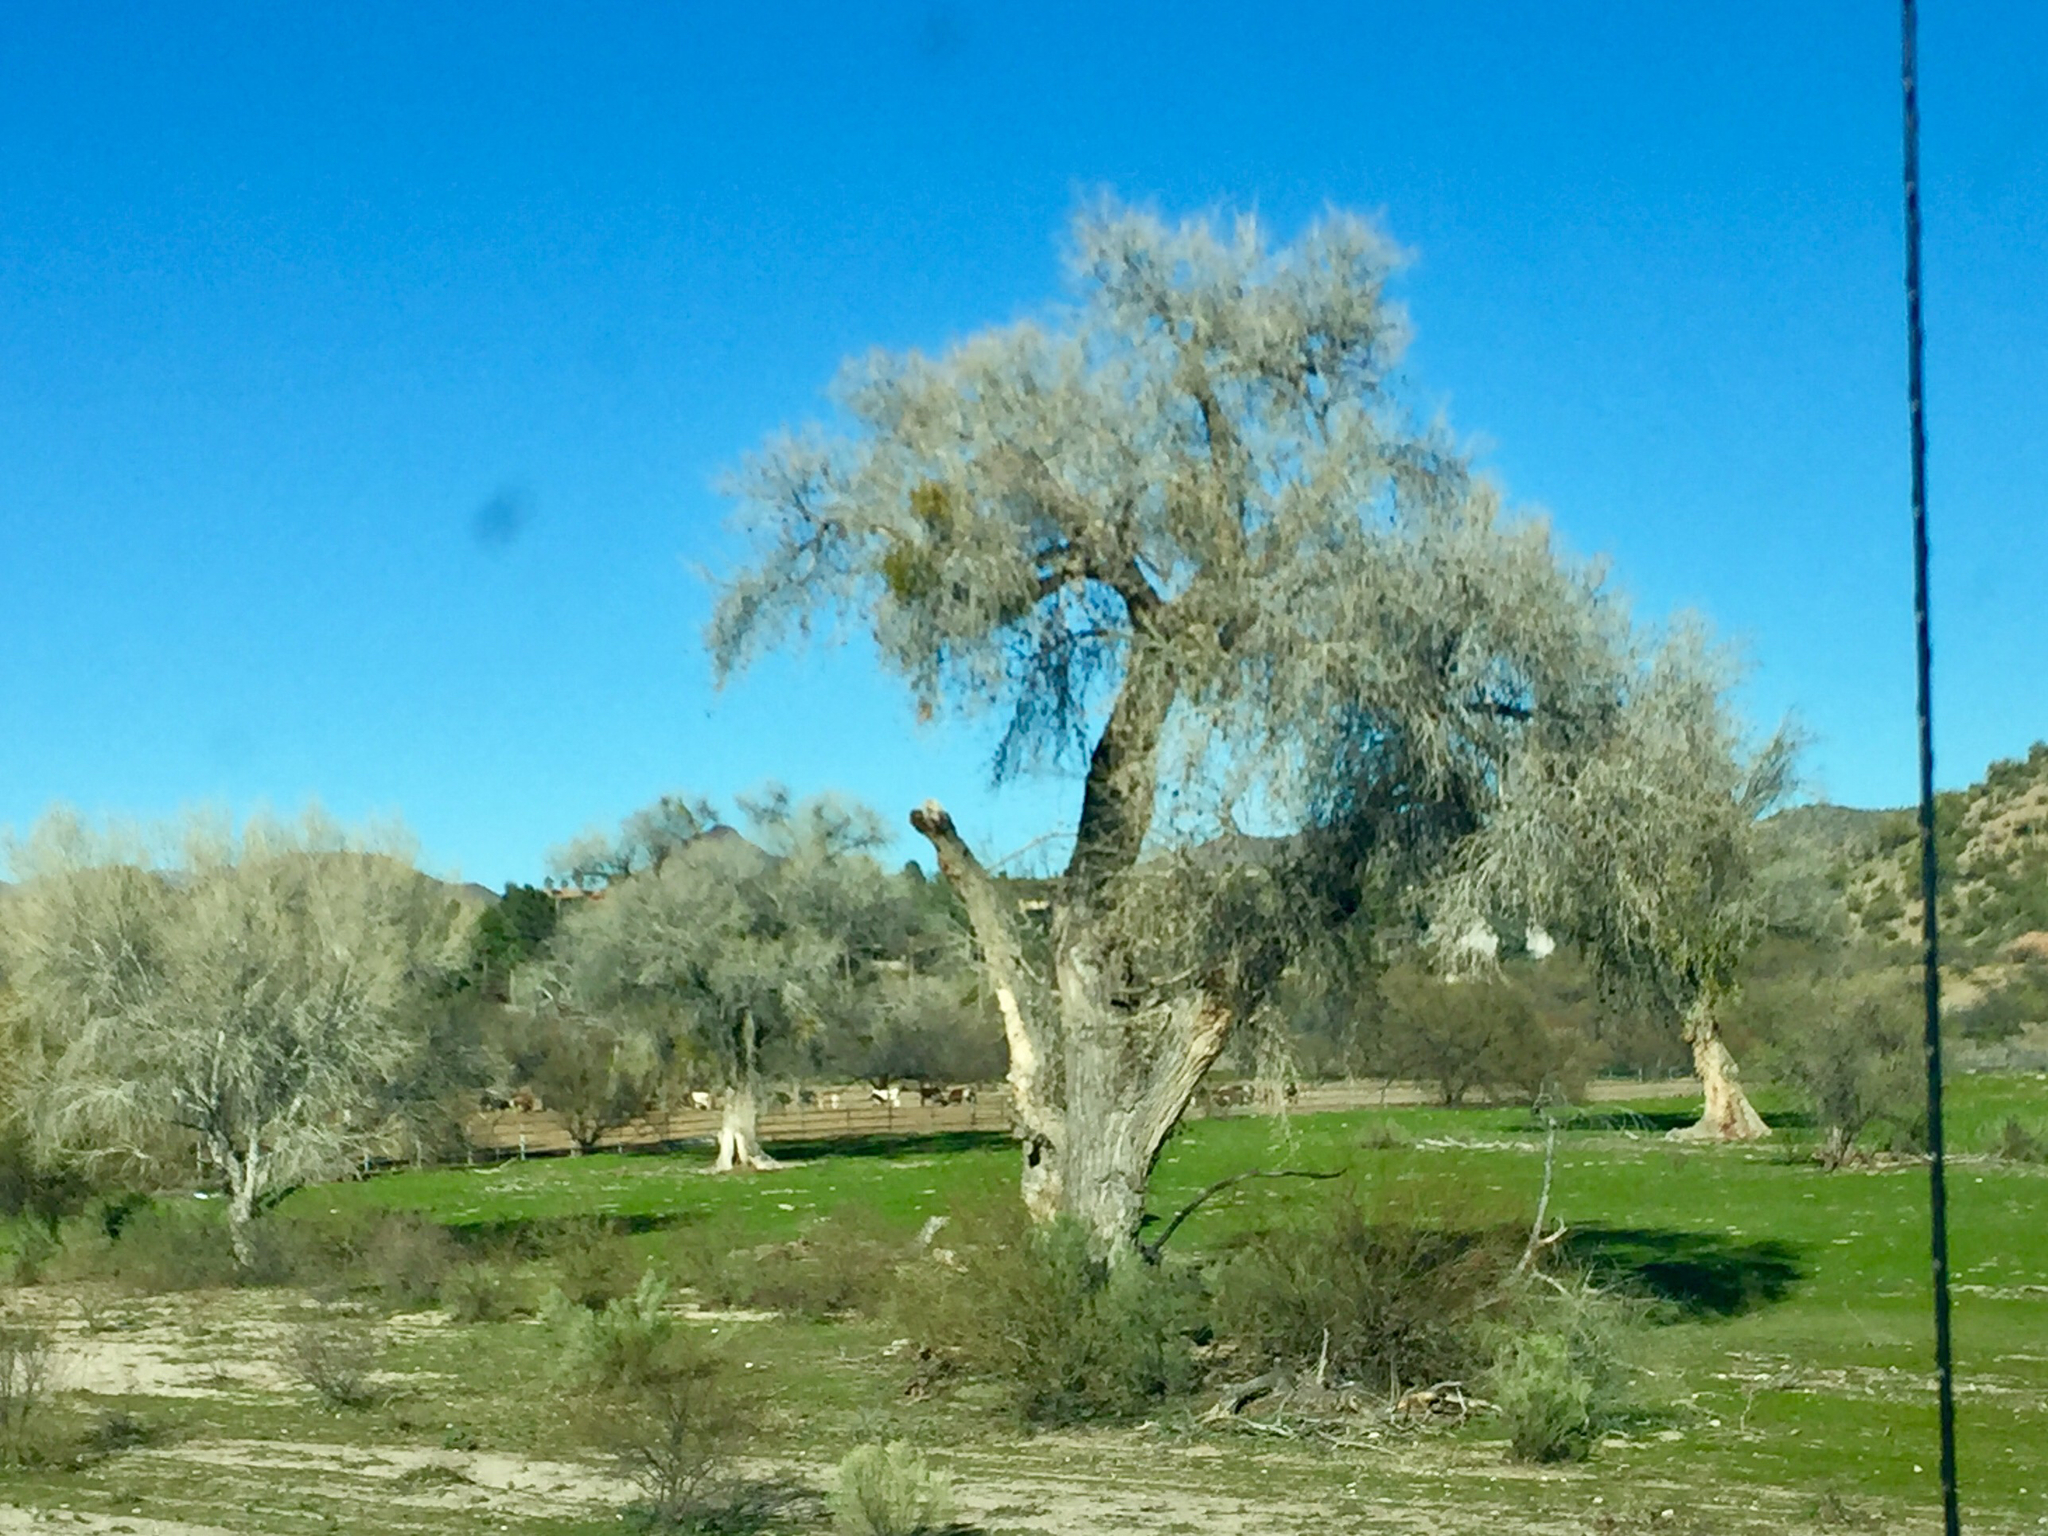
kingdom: Plantae
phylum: Tracheophyta
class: Magnoliopsida
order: Malpighiales
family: Salicaceae
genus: Populus
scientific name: Populus fremontii
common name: Fremont's cottonwood
